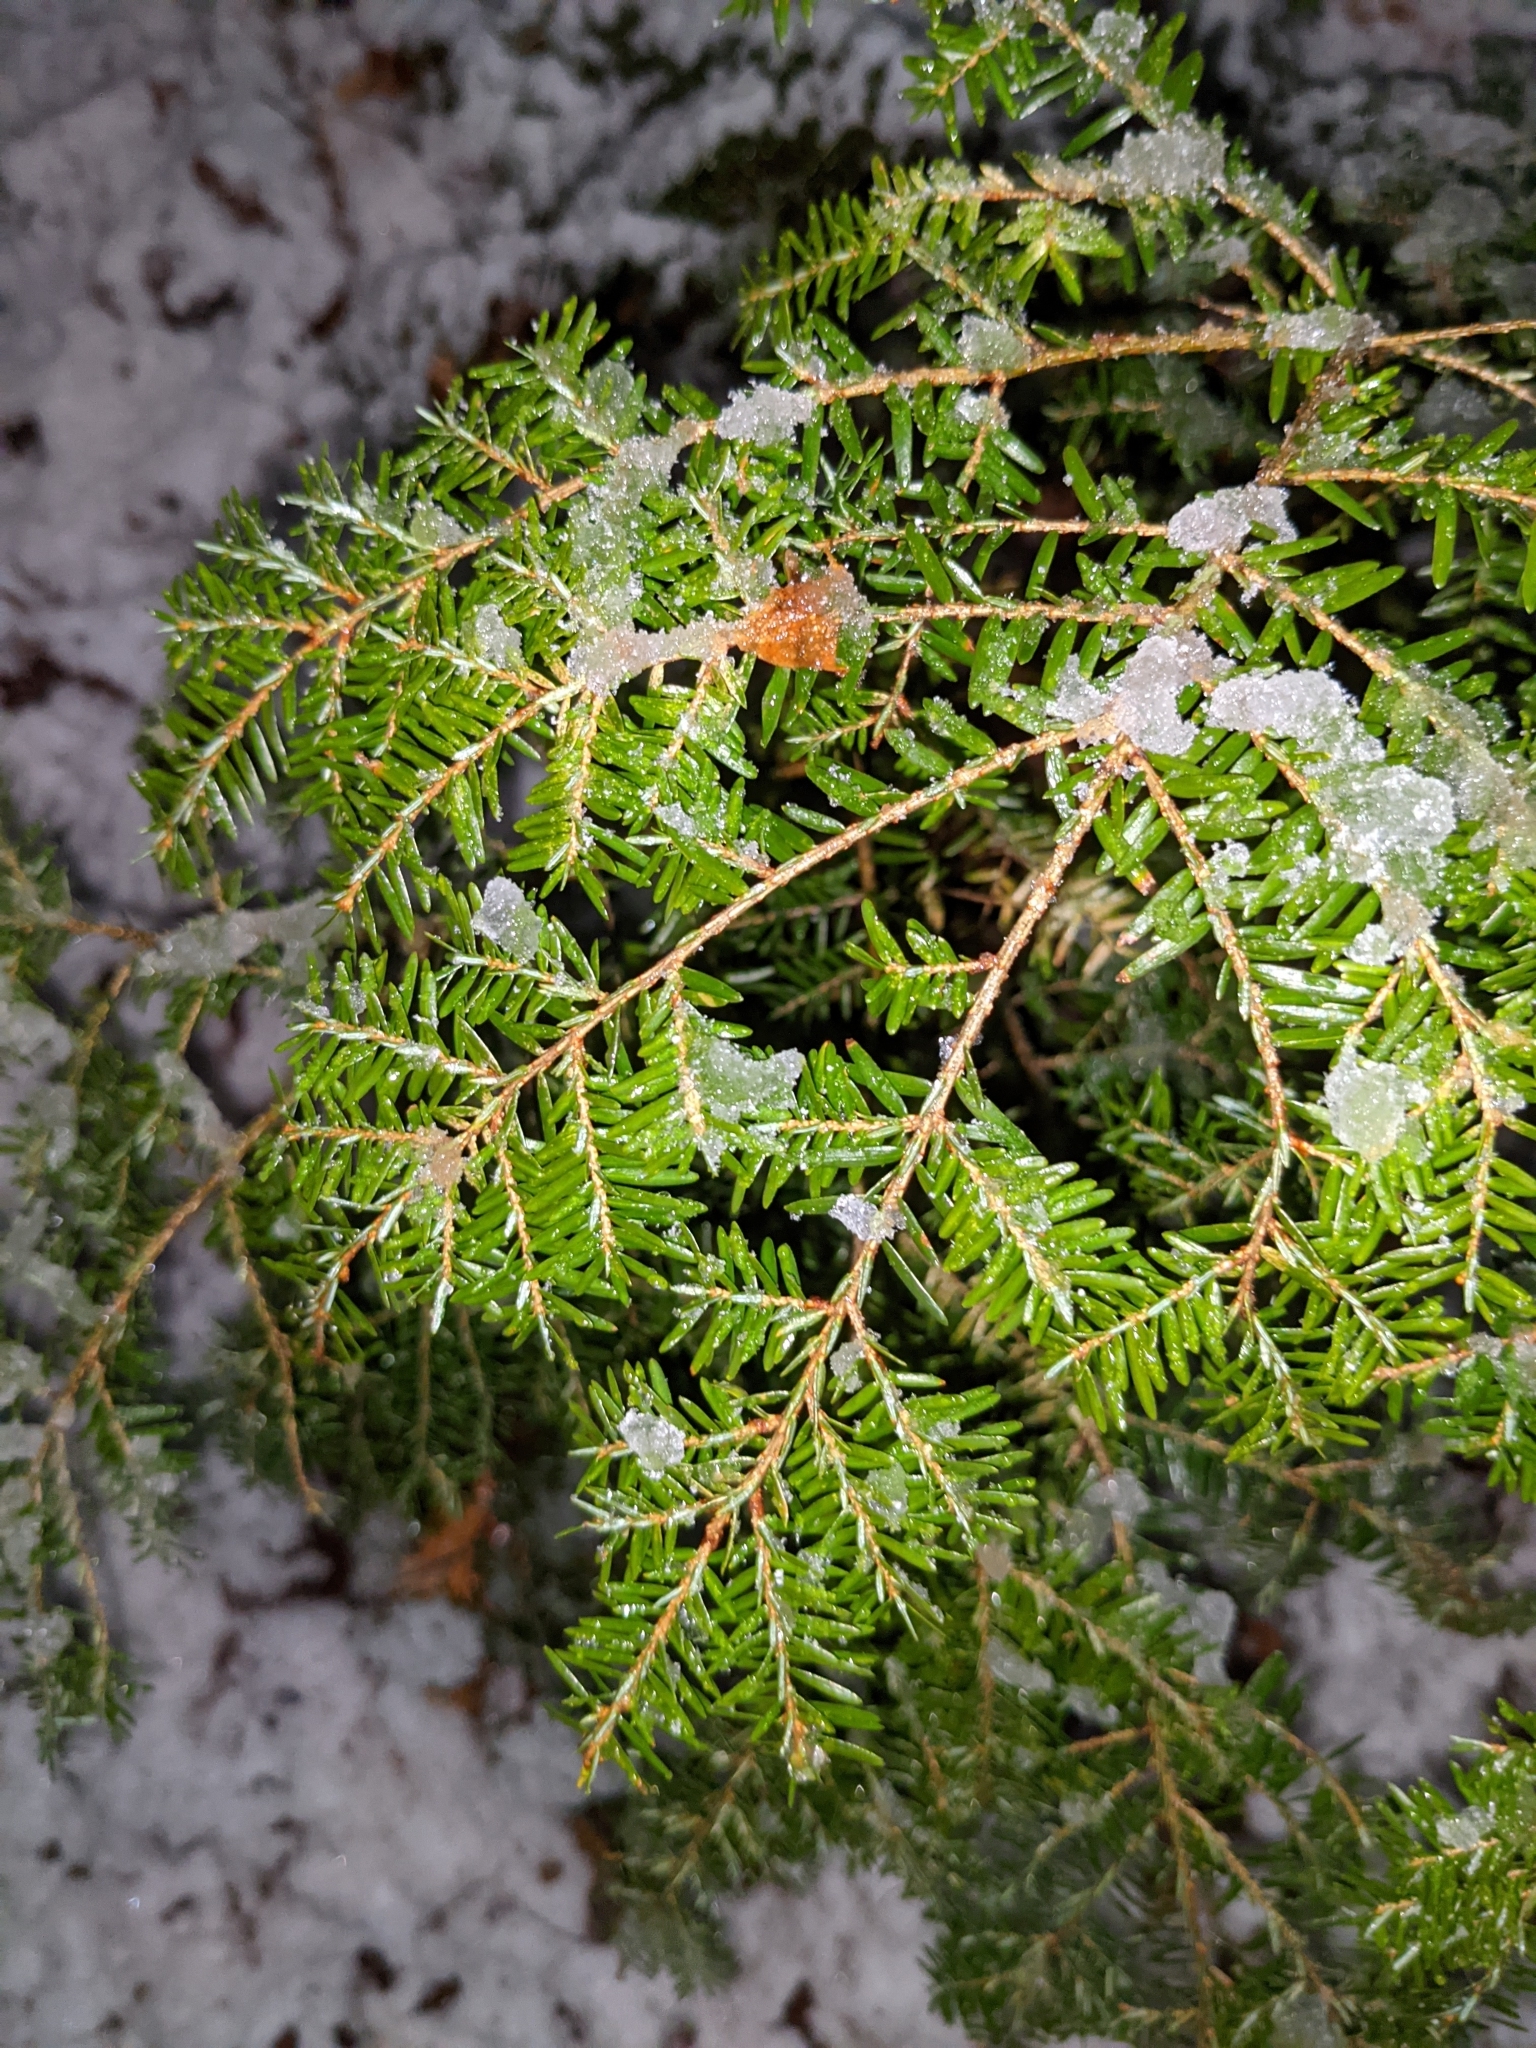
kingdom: Plantae
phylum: Tracheophyta
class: Pinopsida
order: Pinales
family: Pinaceae
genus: Tsuga
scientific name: Tsuga canadensis
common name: Eastern hemlock
